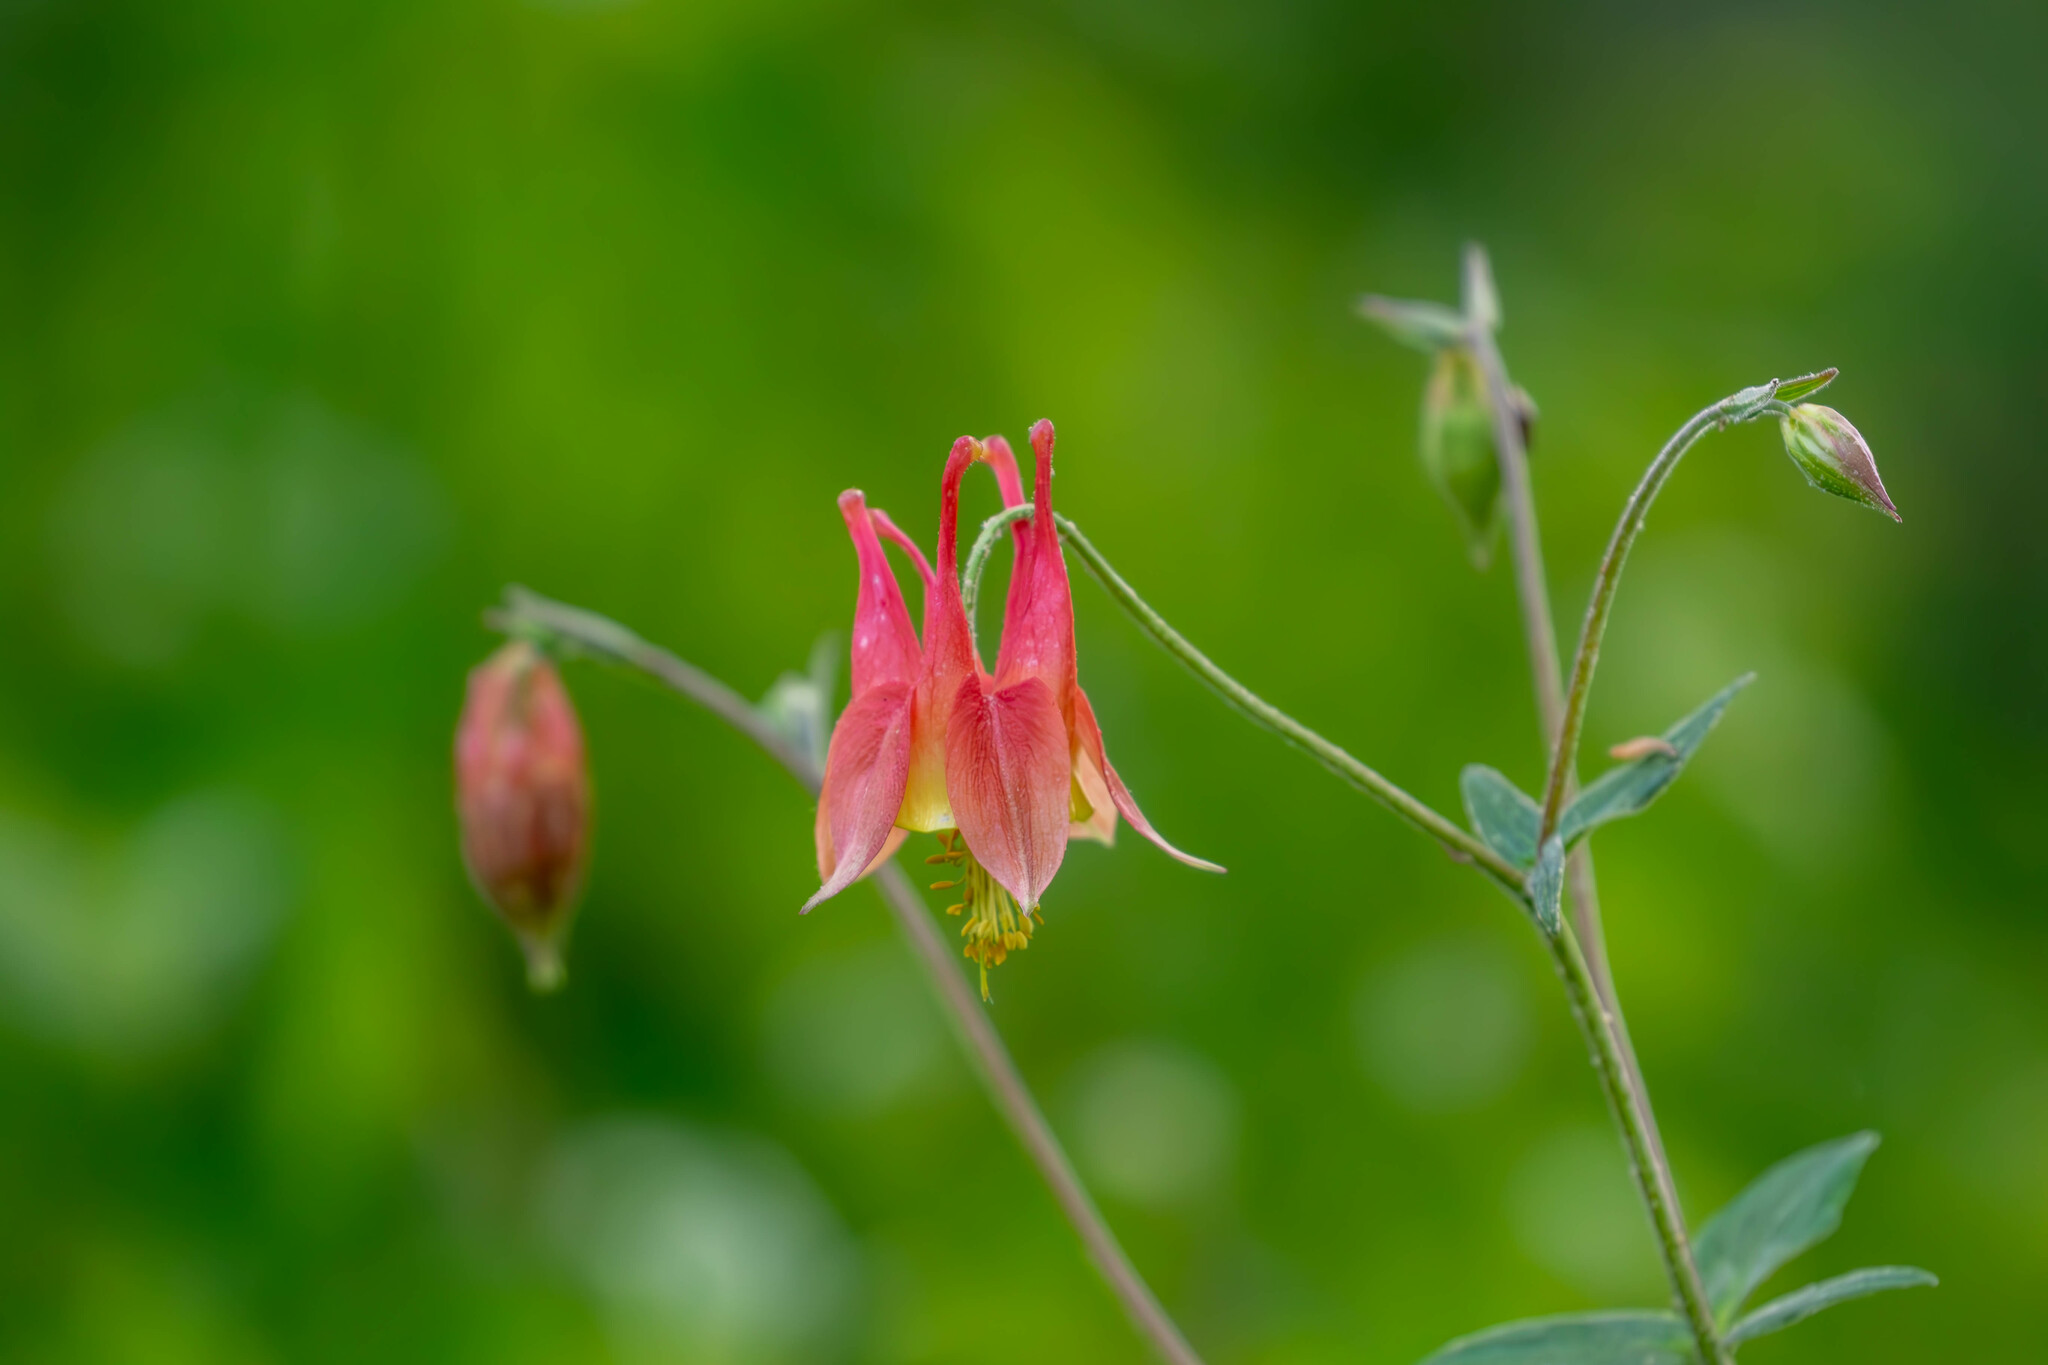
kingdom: Plantae
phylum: Tracheophyta
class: Magnoliopsida
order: Ranunculales
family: Ranunculaceae
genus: Aquilegia
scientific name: Aquilegia canadensis
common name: American columbine
